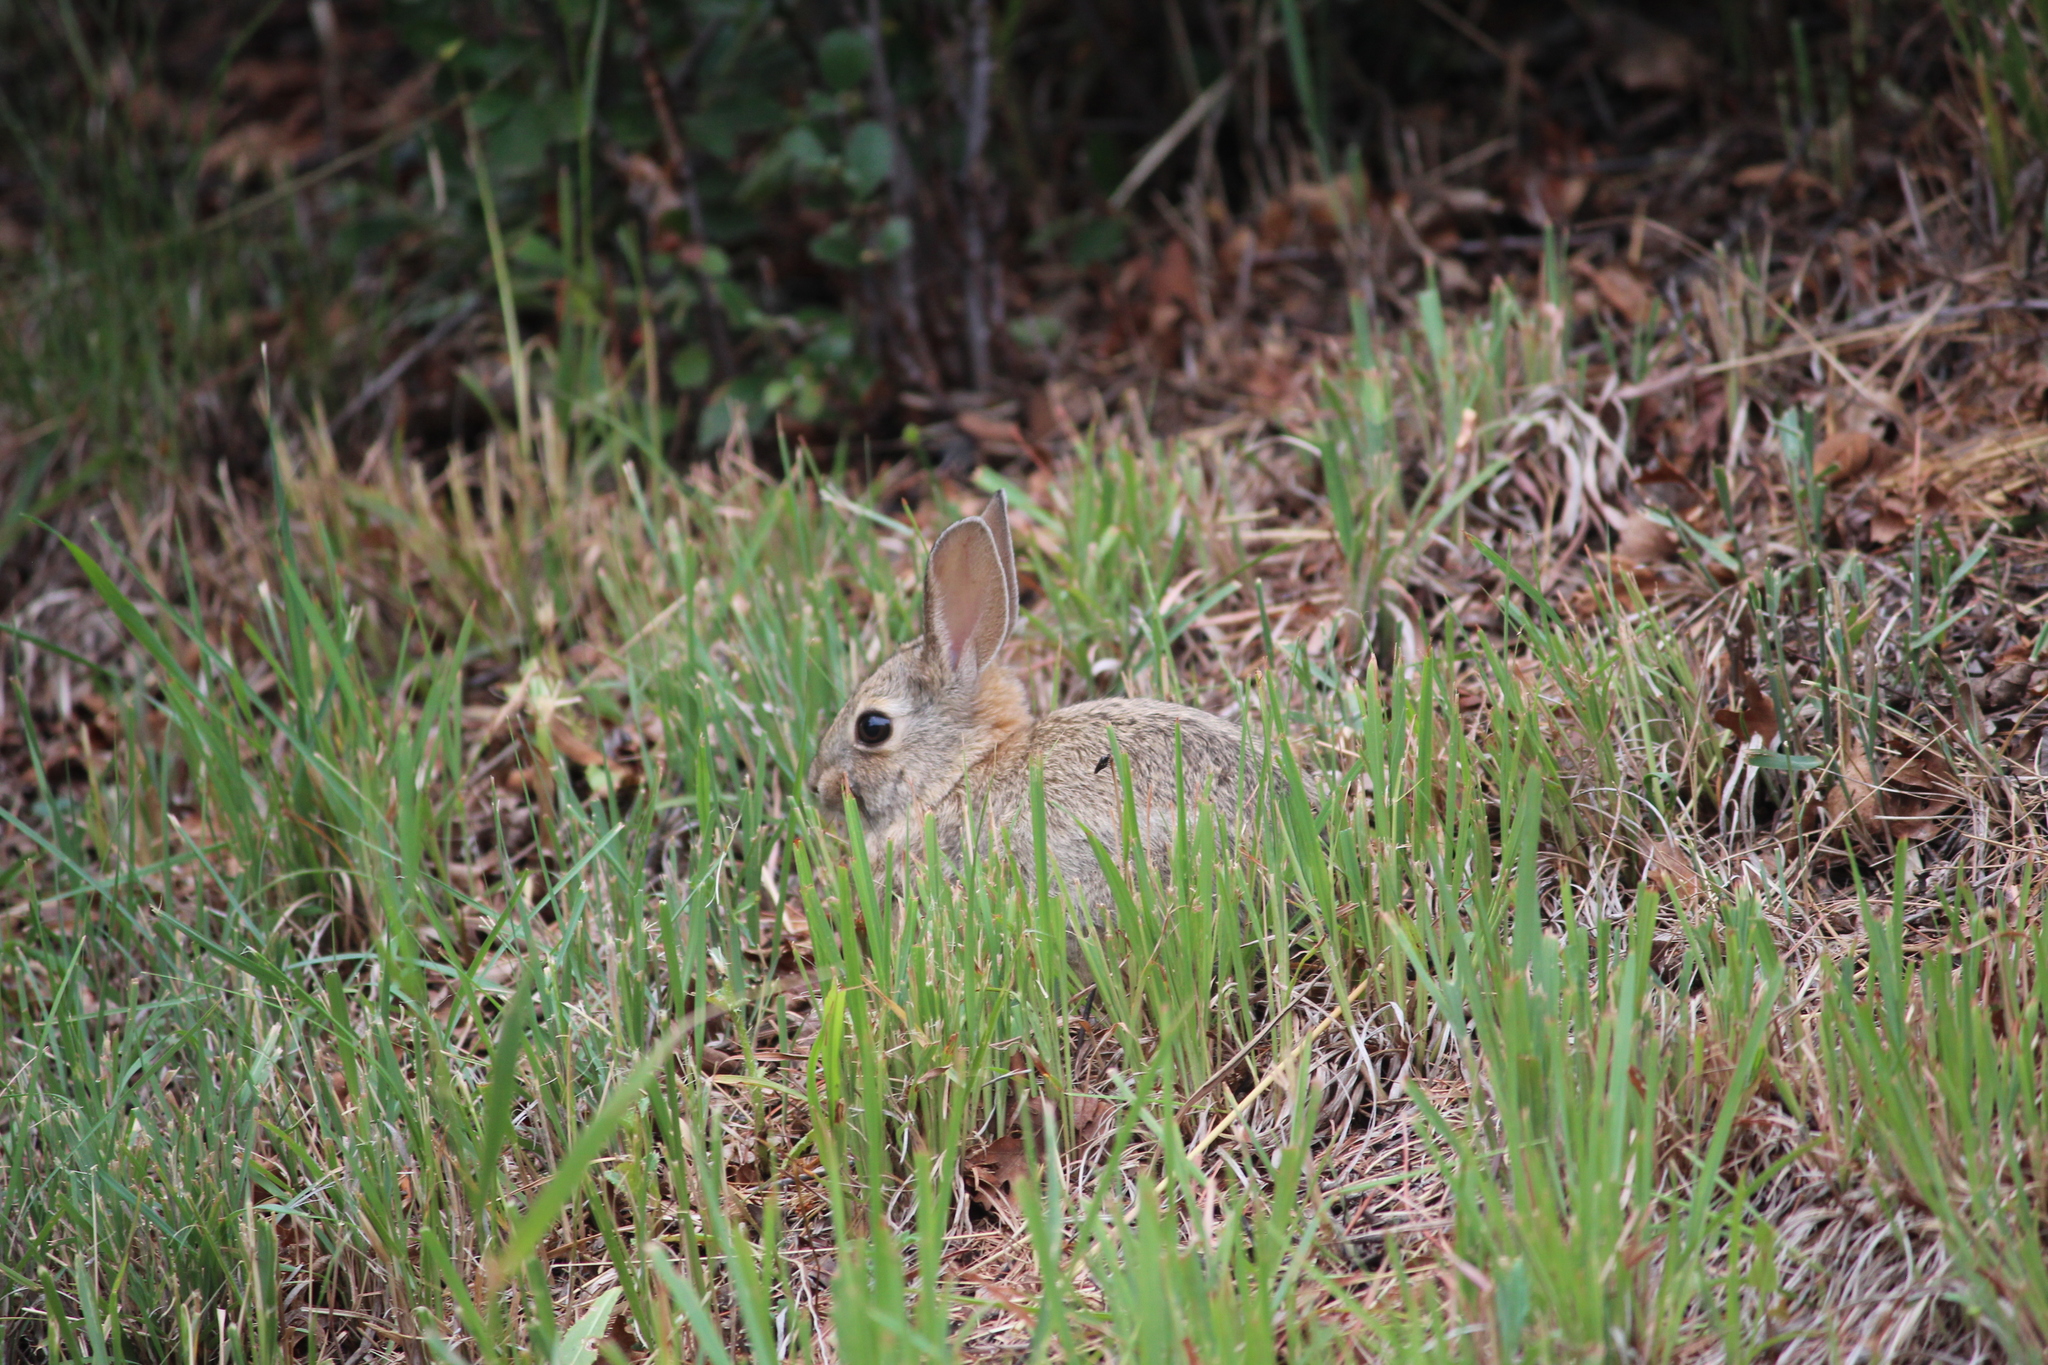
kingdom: Animalia
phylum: Chordata
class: Mammalia
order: Lagomorpha
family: Leporidae
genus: Sylvilagus
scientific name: Sylvilagus nuttallii
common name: Mountain cottontail
